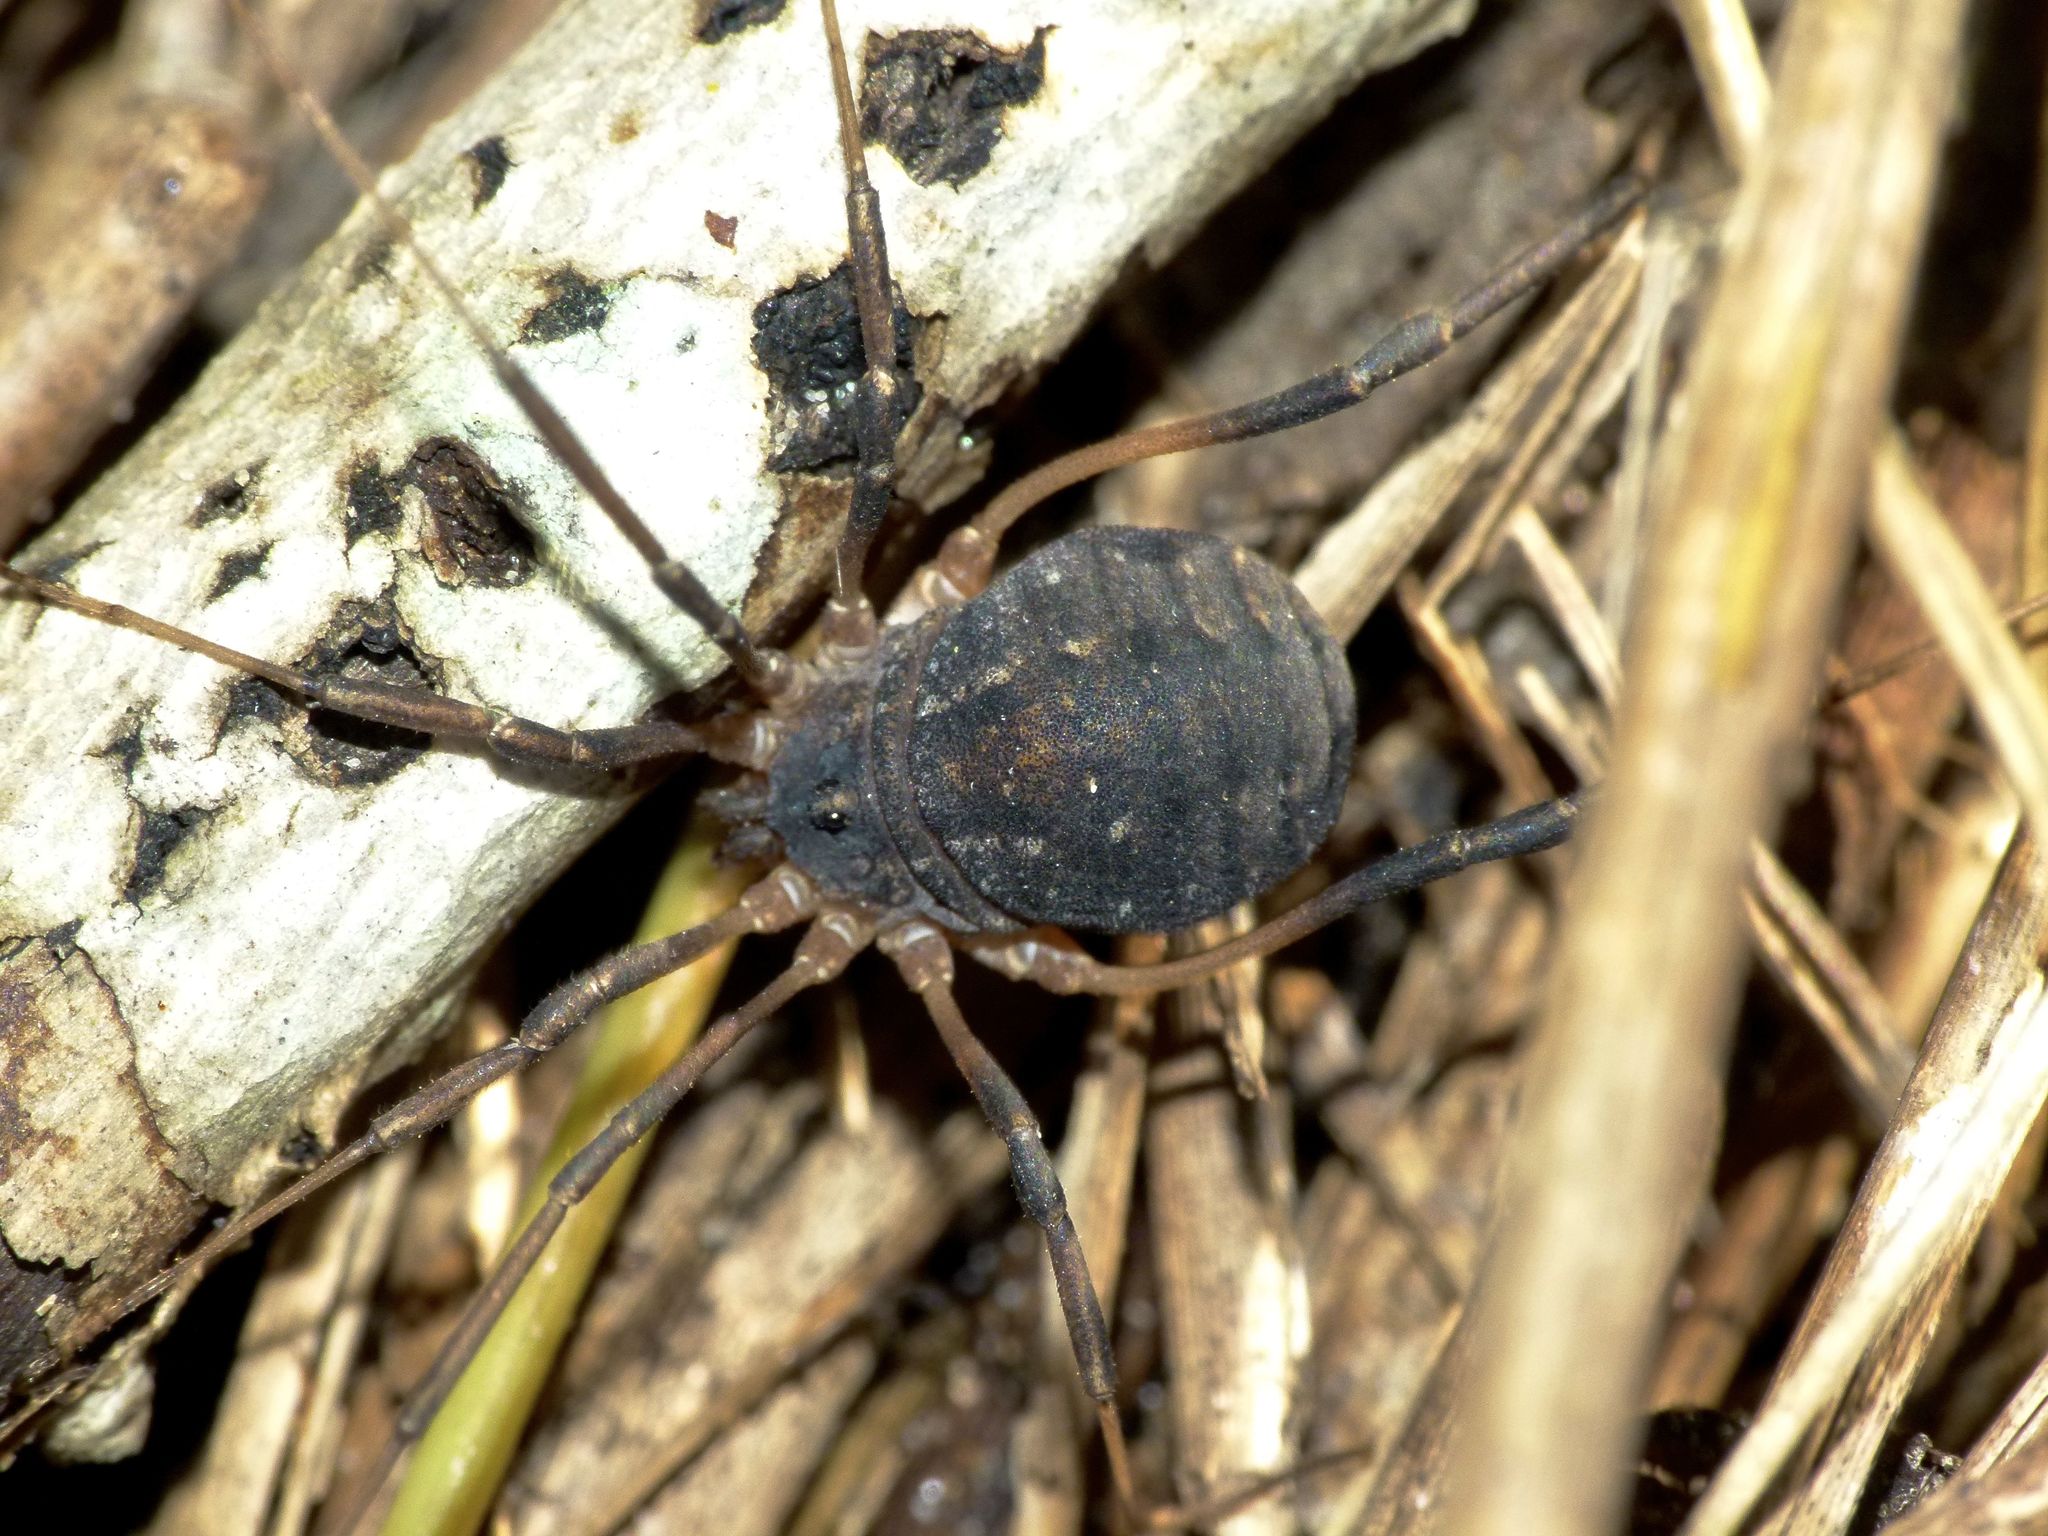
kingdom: Animalia
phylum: Arthropoda
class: Arachnida
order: Opiliones
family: Sclerosomatidae
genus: Eumesosoma
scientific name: Eumesosoma roeweri
